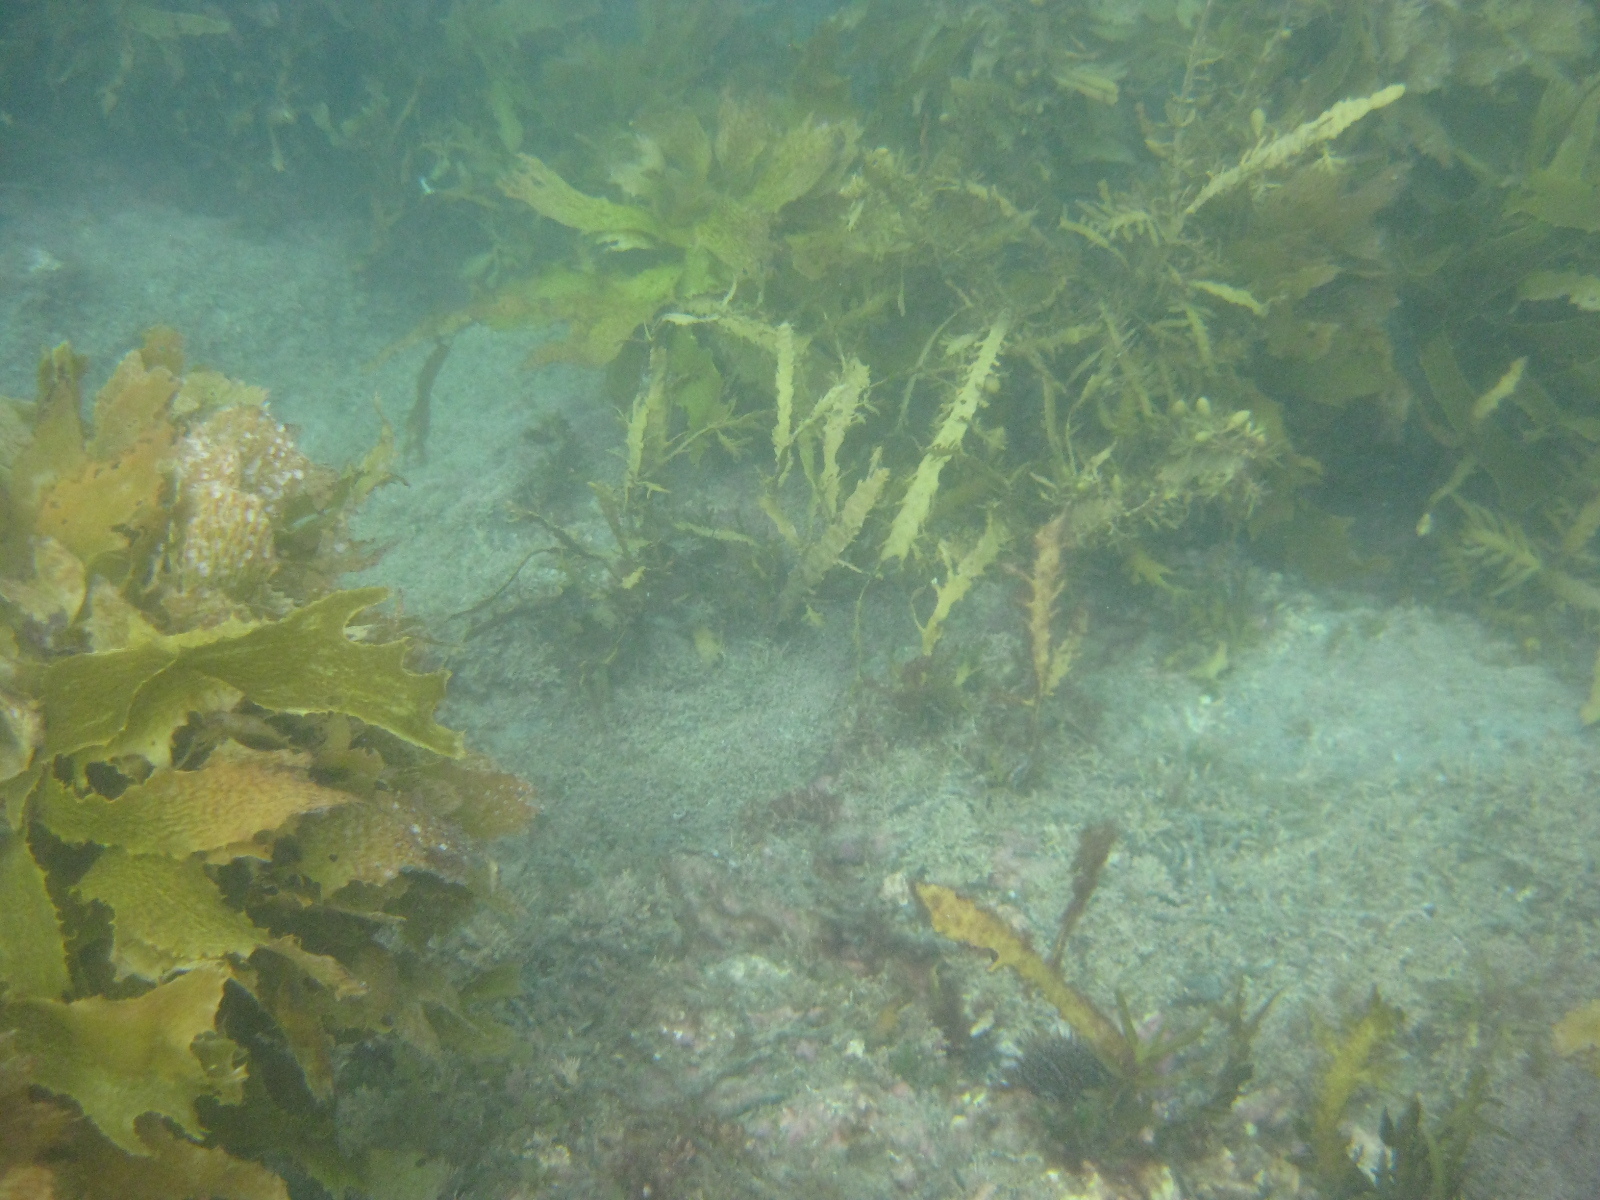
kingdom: Chromista
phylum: Ochrophyta
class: Phaeophyceae
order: Fucales
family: Sargassaceae
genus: Carpophyllum
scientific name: Carpophyllum maschalocarpum
